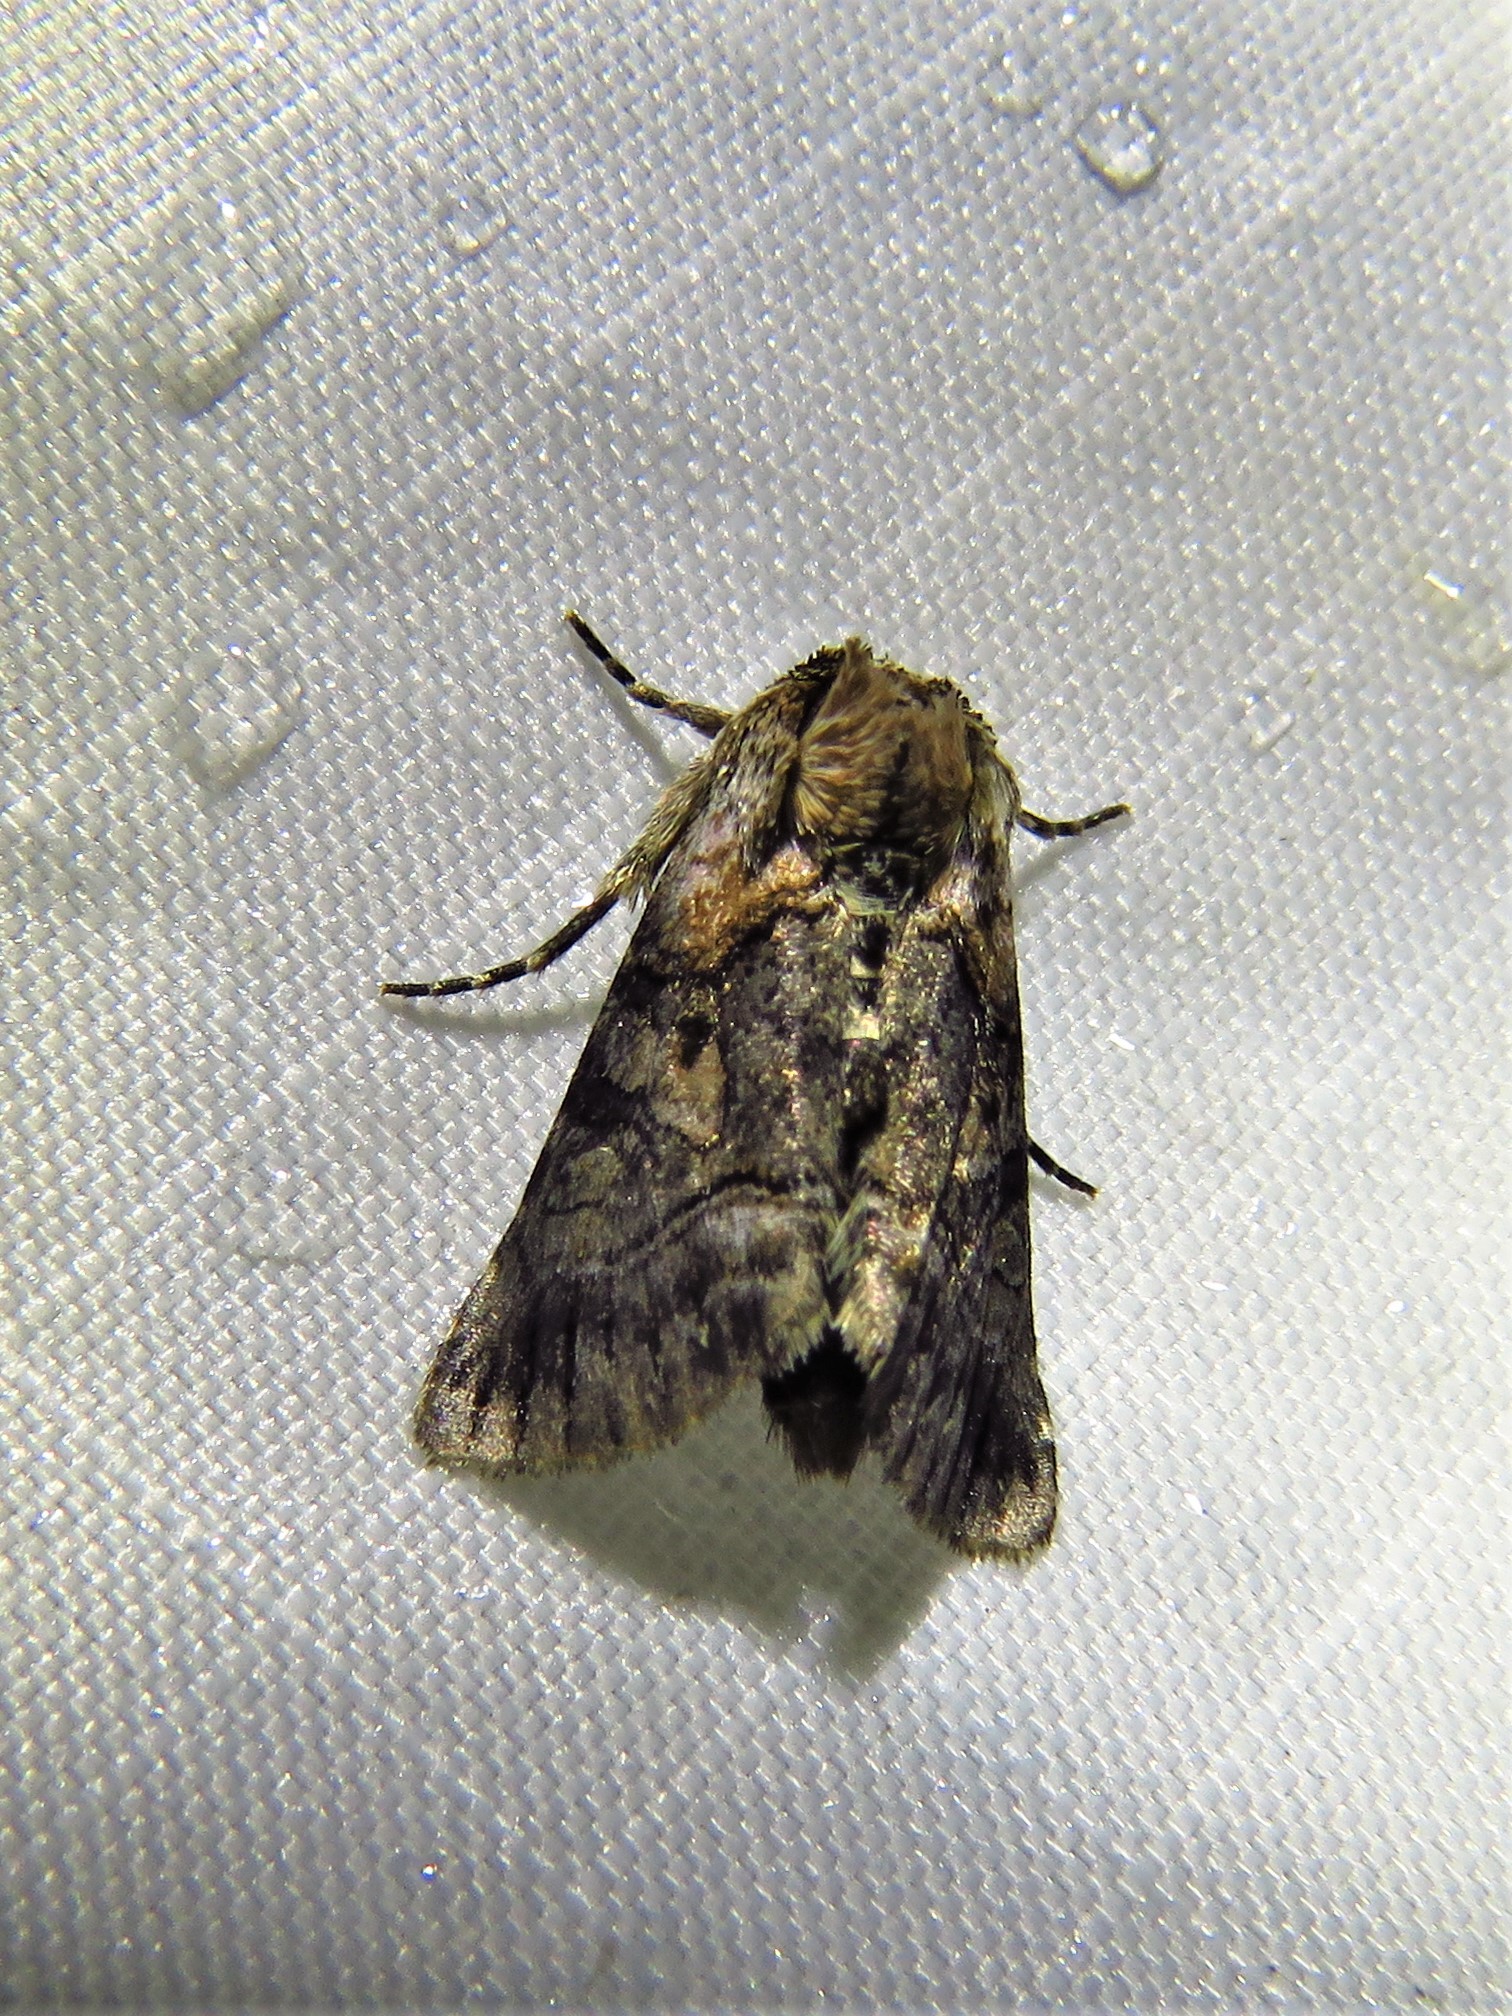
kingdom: Animalia
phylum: Arthropoda
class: Insecta
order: Lepidoptera
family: Noctuidae
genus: Abrostola
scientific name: Abrostola microvalis
